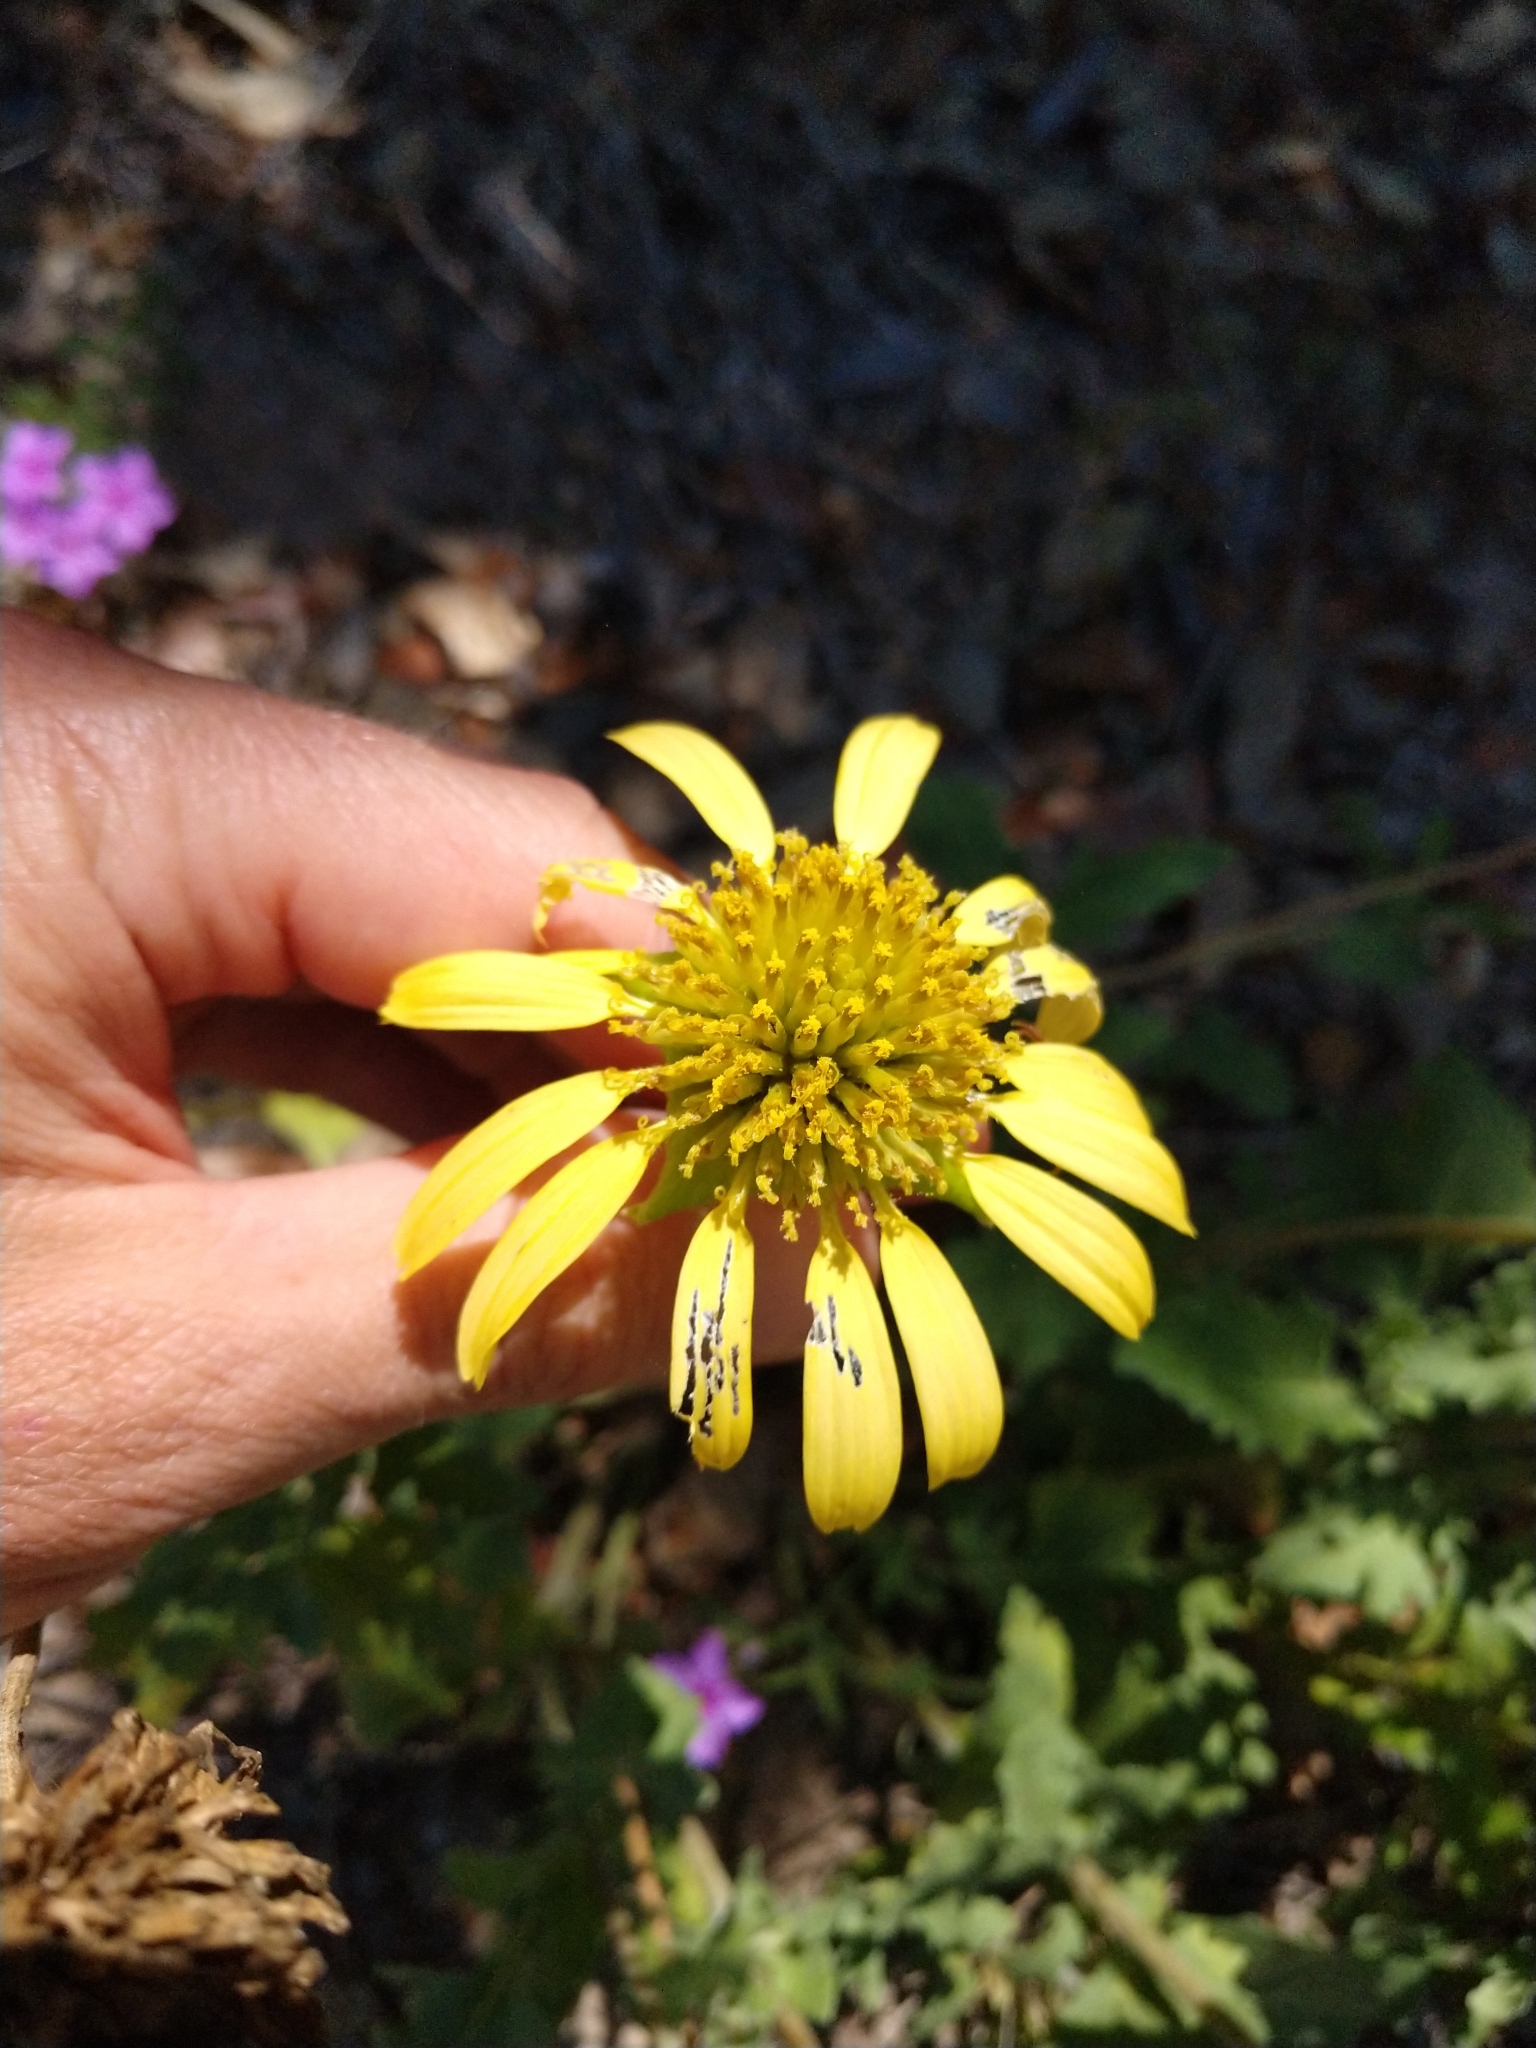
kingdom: Plantae
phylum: Tracheophyta
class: Magnoliopsida
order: Asterales
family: Asteraceae
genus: Tetragonotheca
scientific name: Tetragonotheca repanda
